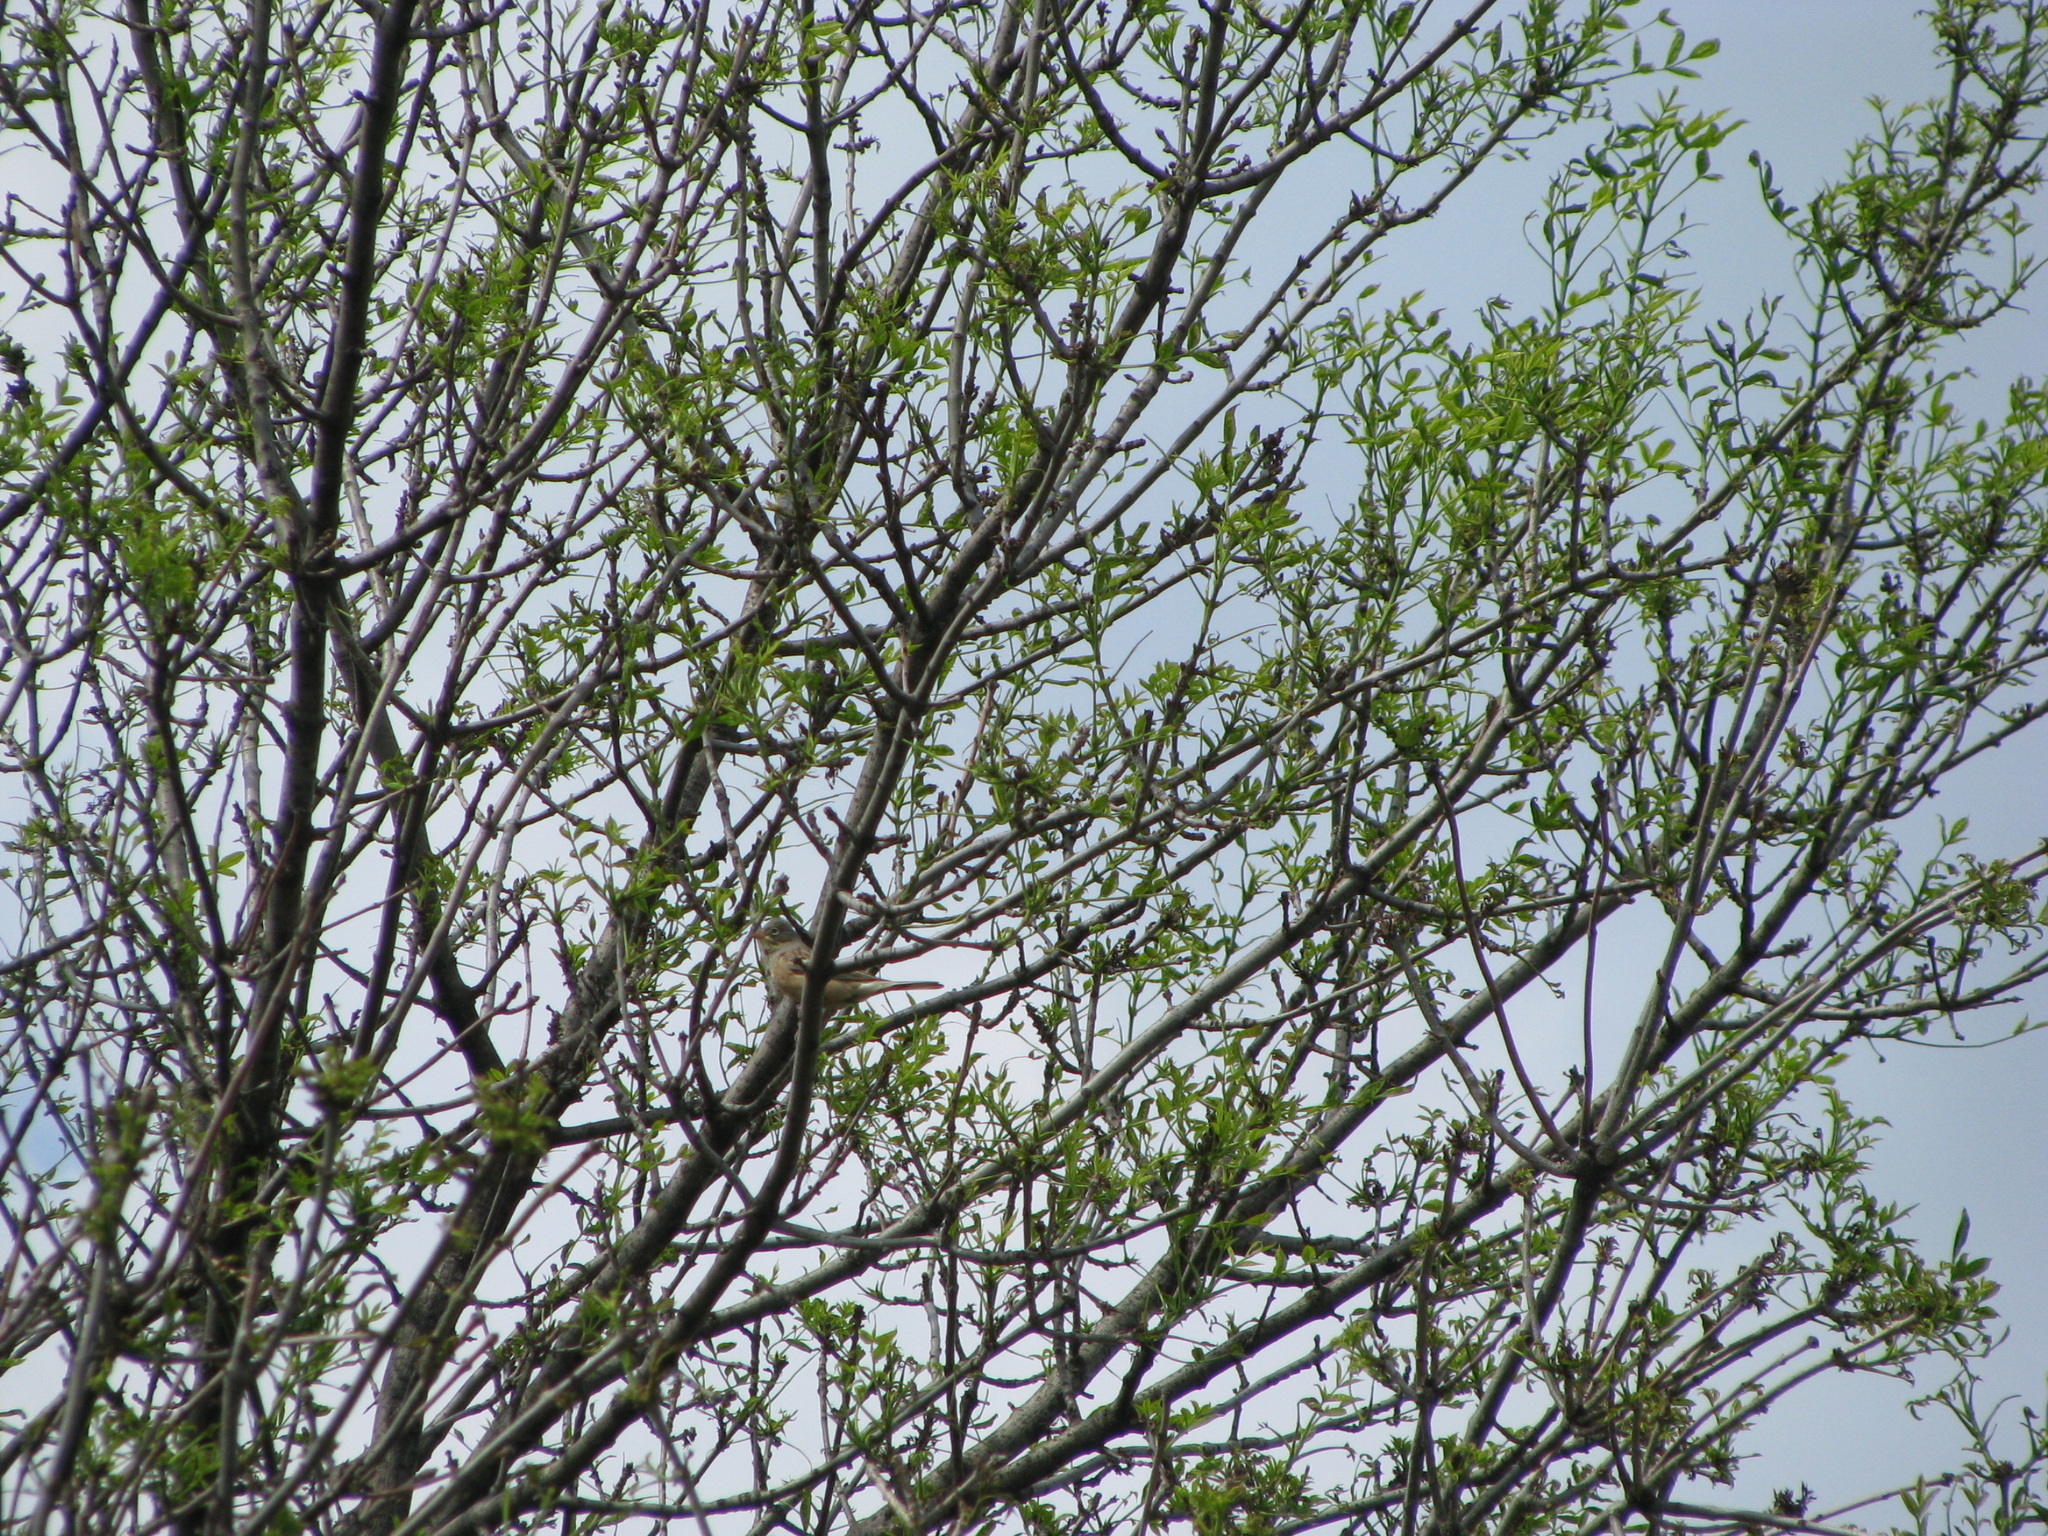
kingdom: Animalia
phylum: Chordata
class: Aves
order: Passeriformes
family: Emberizidae
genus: Emberiza
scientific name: Emberiza hortulana
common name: Ortolan bunting
